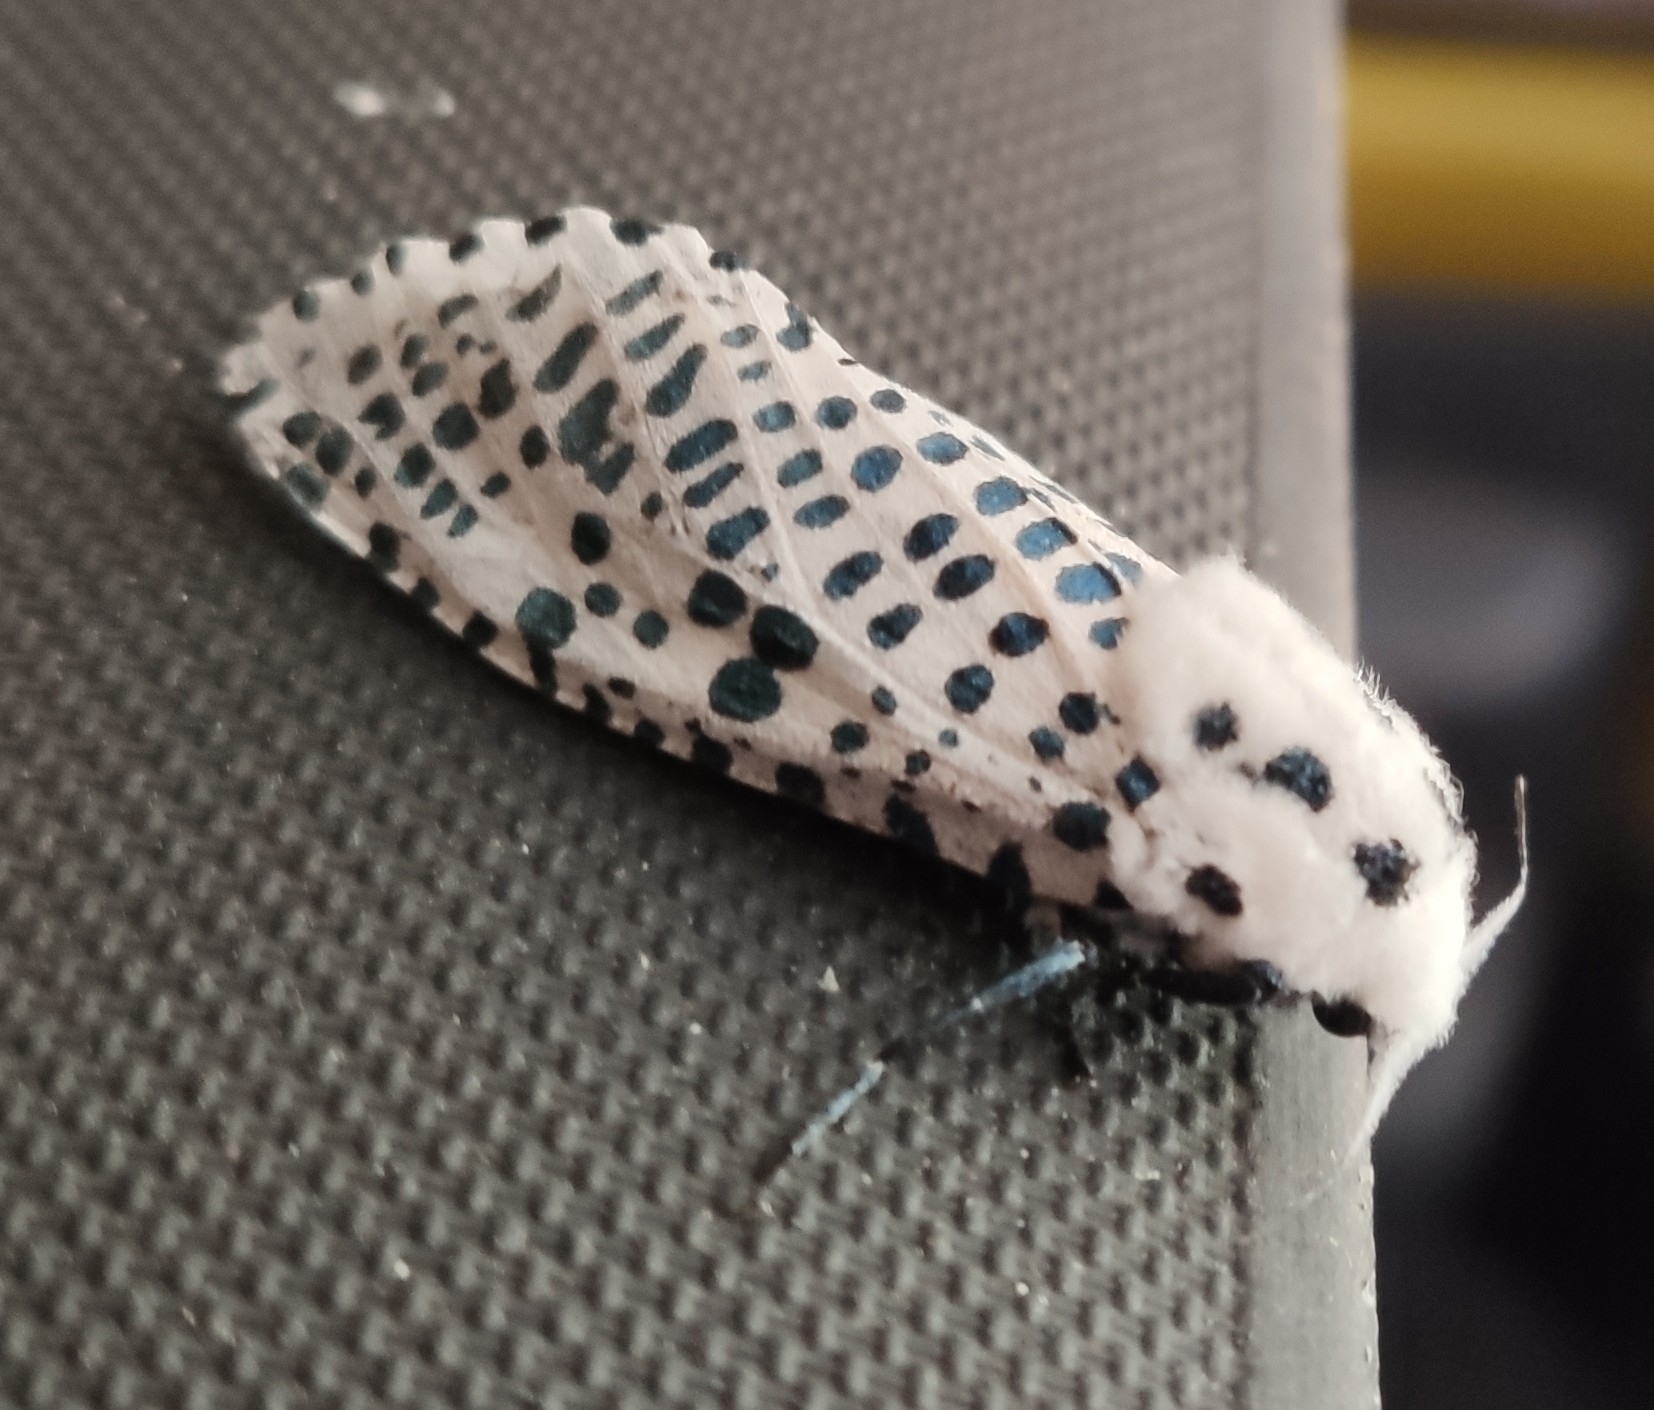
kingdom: Animalia
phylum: Arthropoda
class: Insecta
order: Lepidoptera
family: Cossidae
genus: Zeuzera
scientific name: Zeuzera pyrina
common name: Leopard moth
